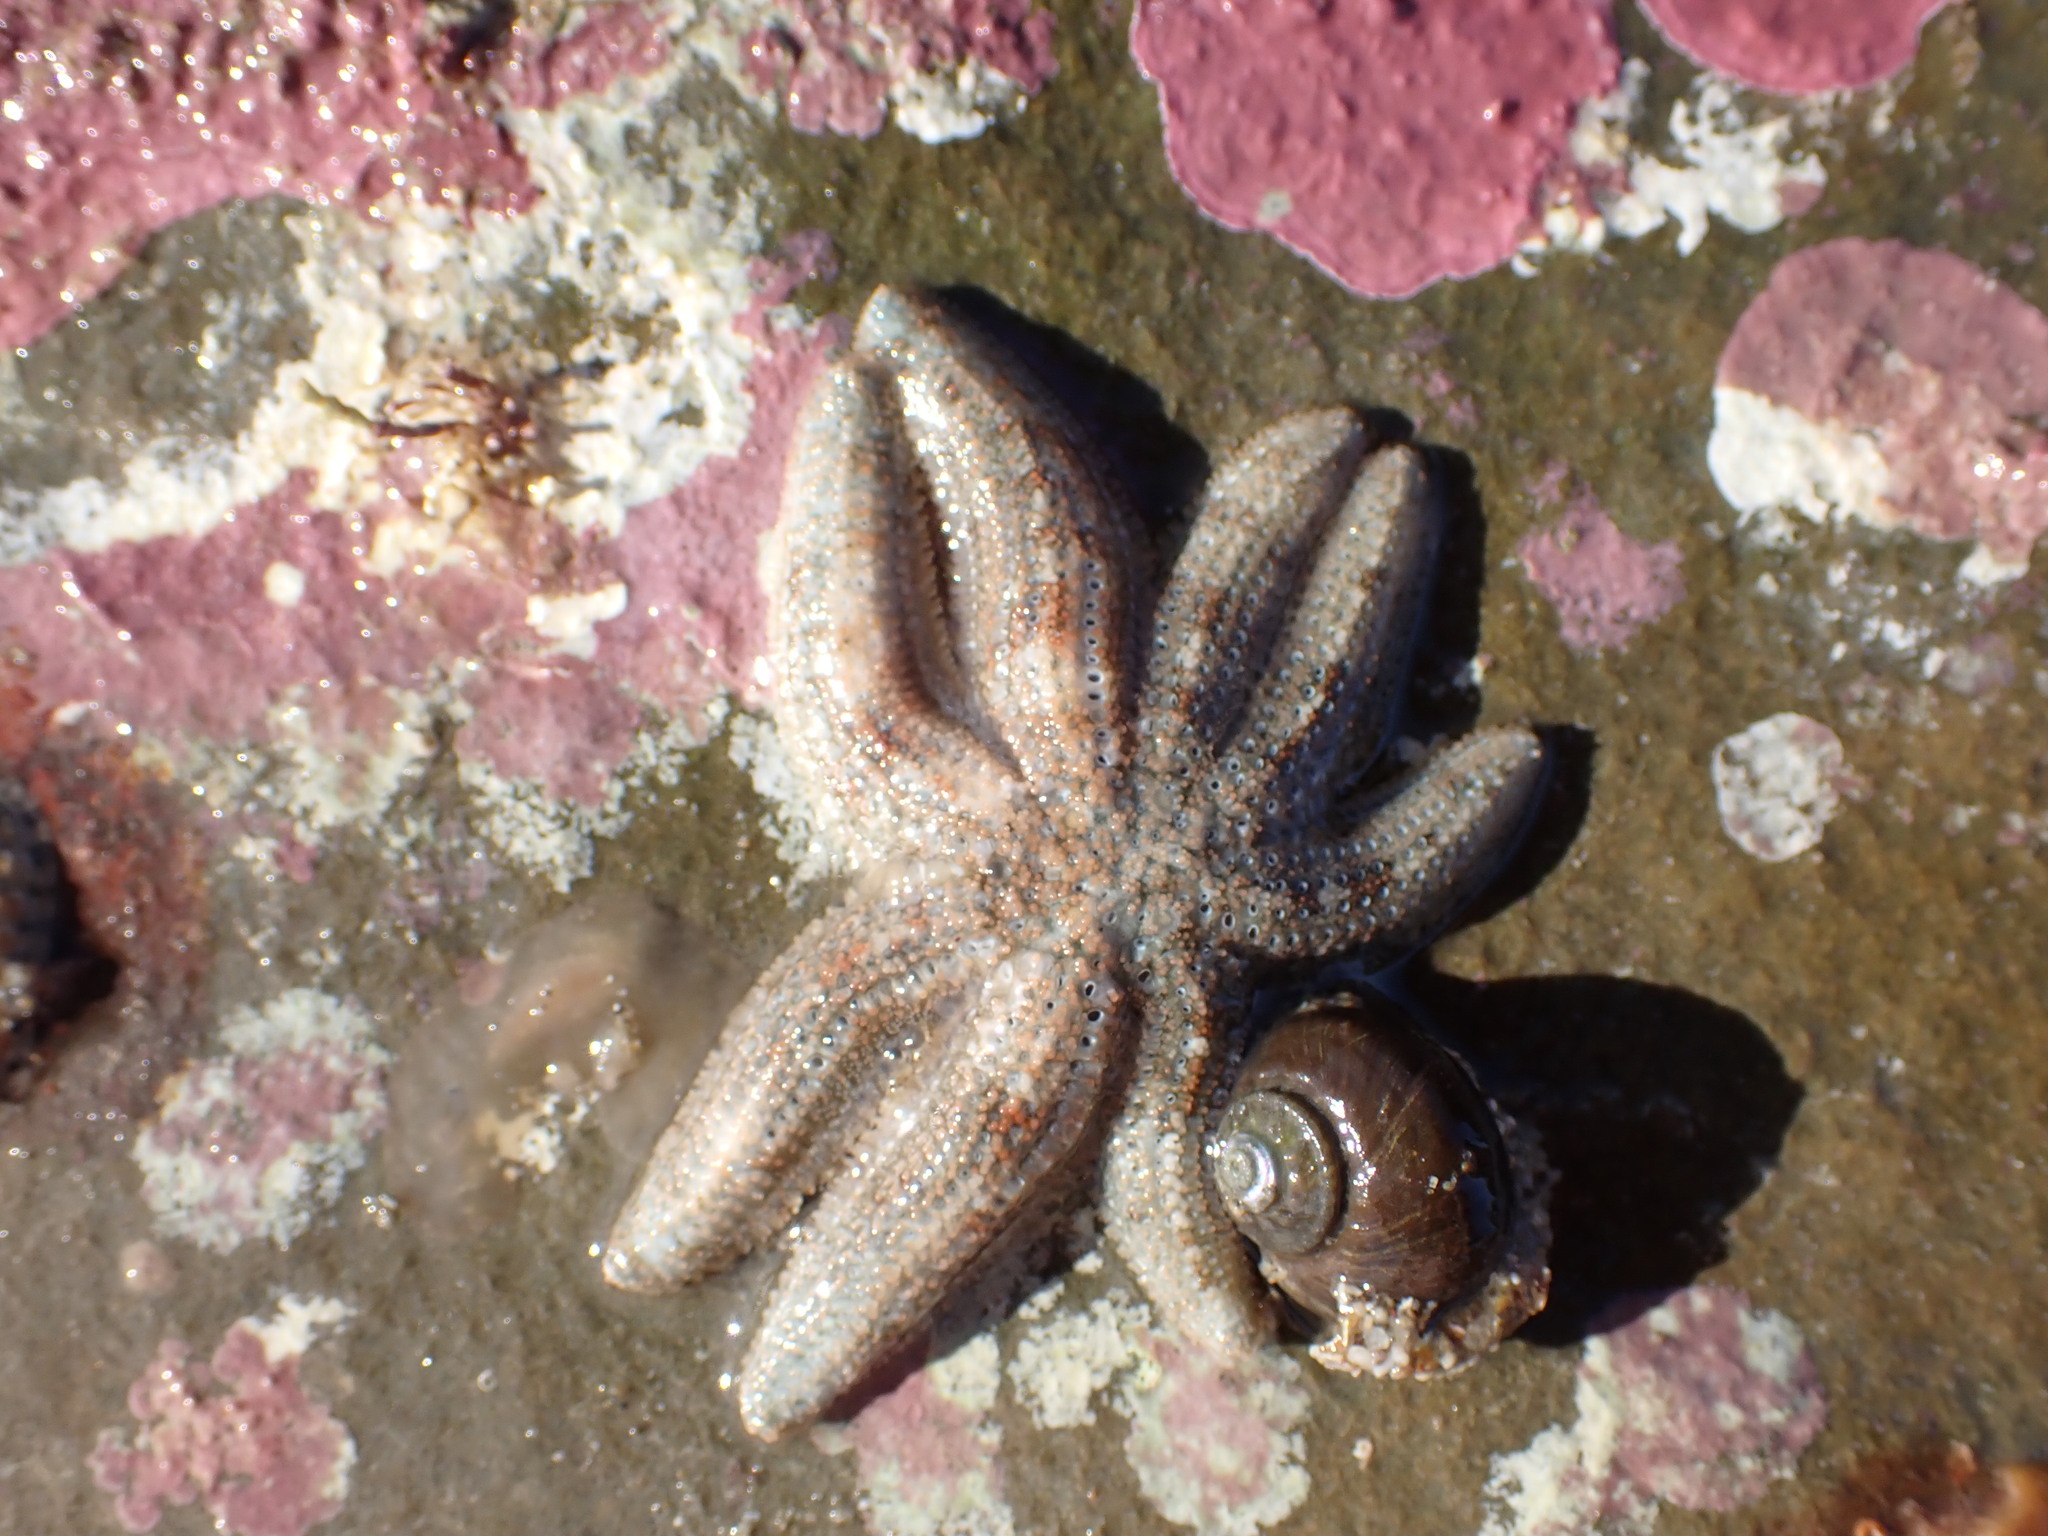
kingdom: Animalia
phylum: Echinodermata
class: Asteroidea
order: Forcipulatida
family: Stichasteridae
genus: Allostichaster
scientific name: Allostichaster polyplax
